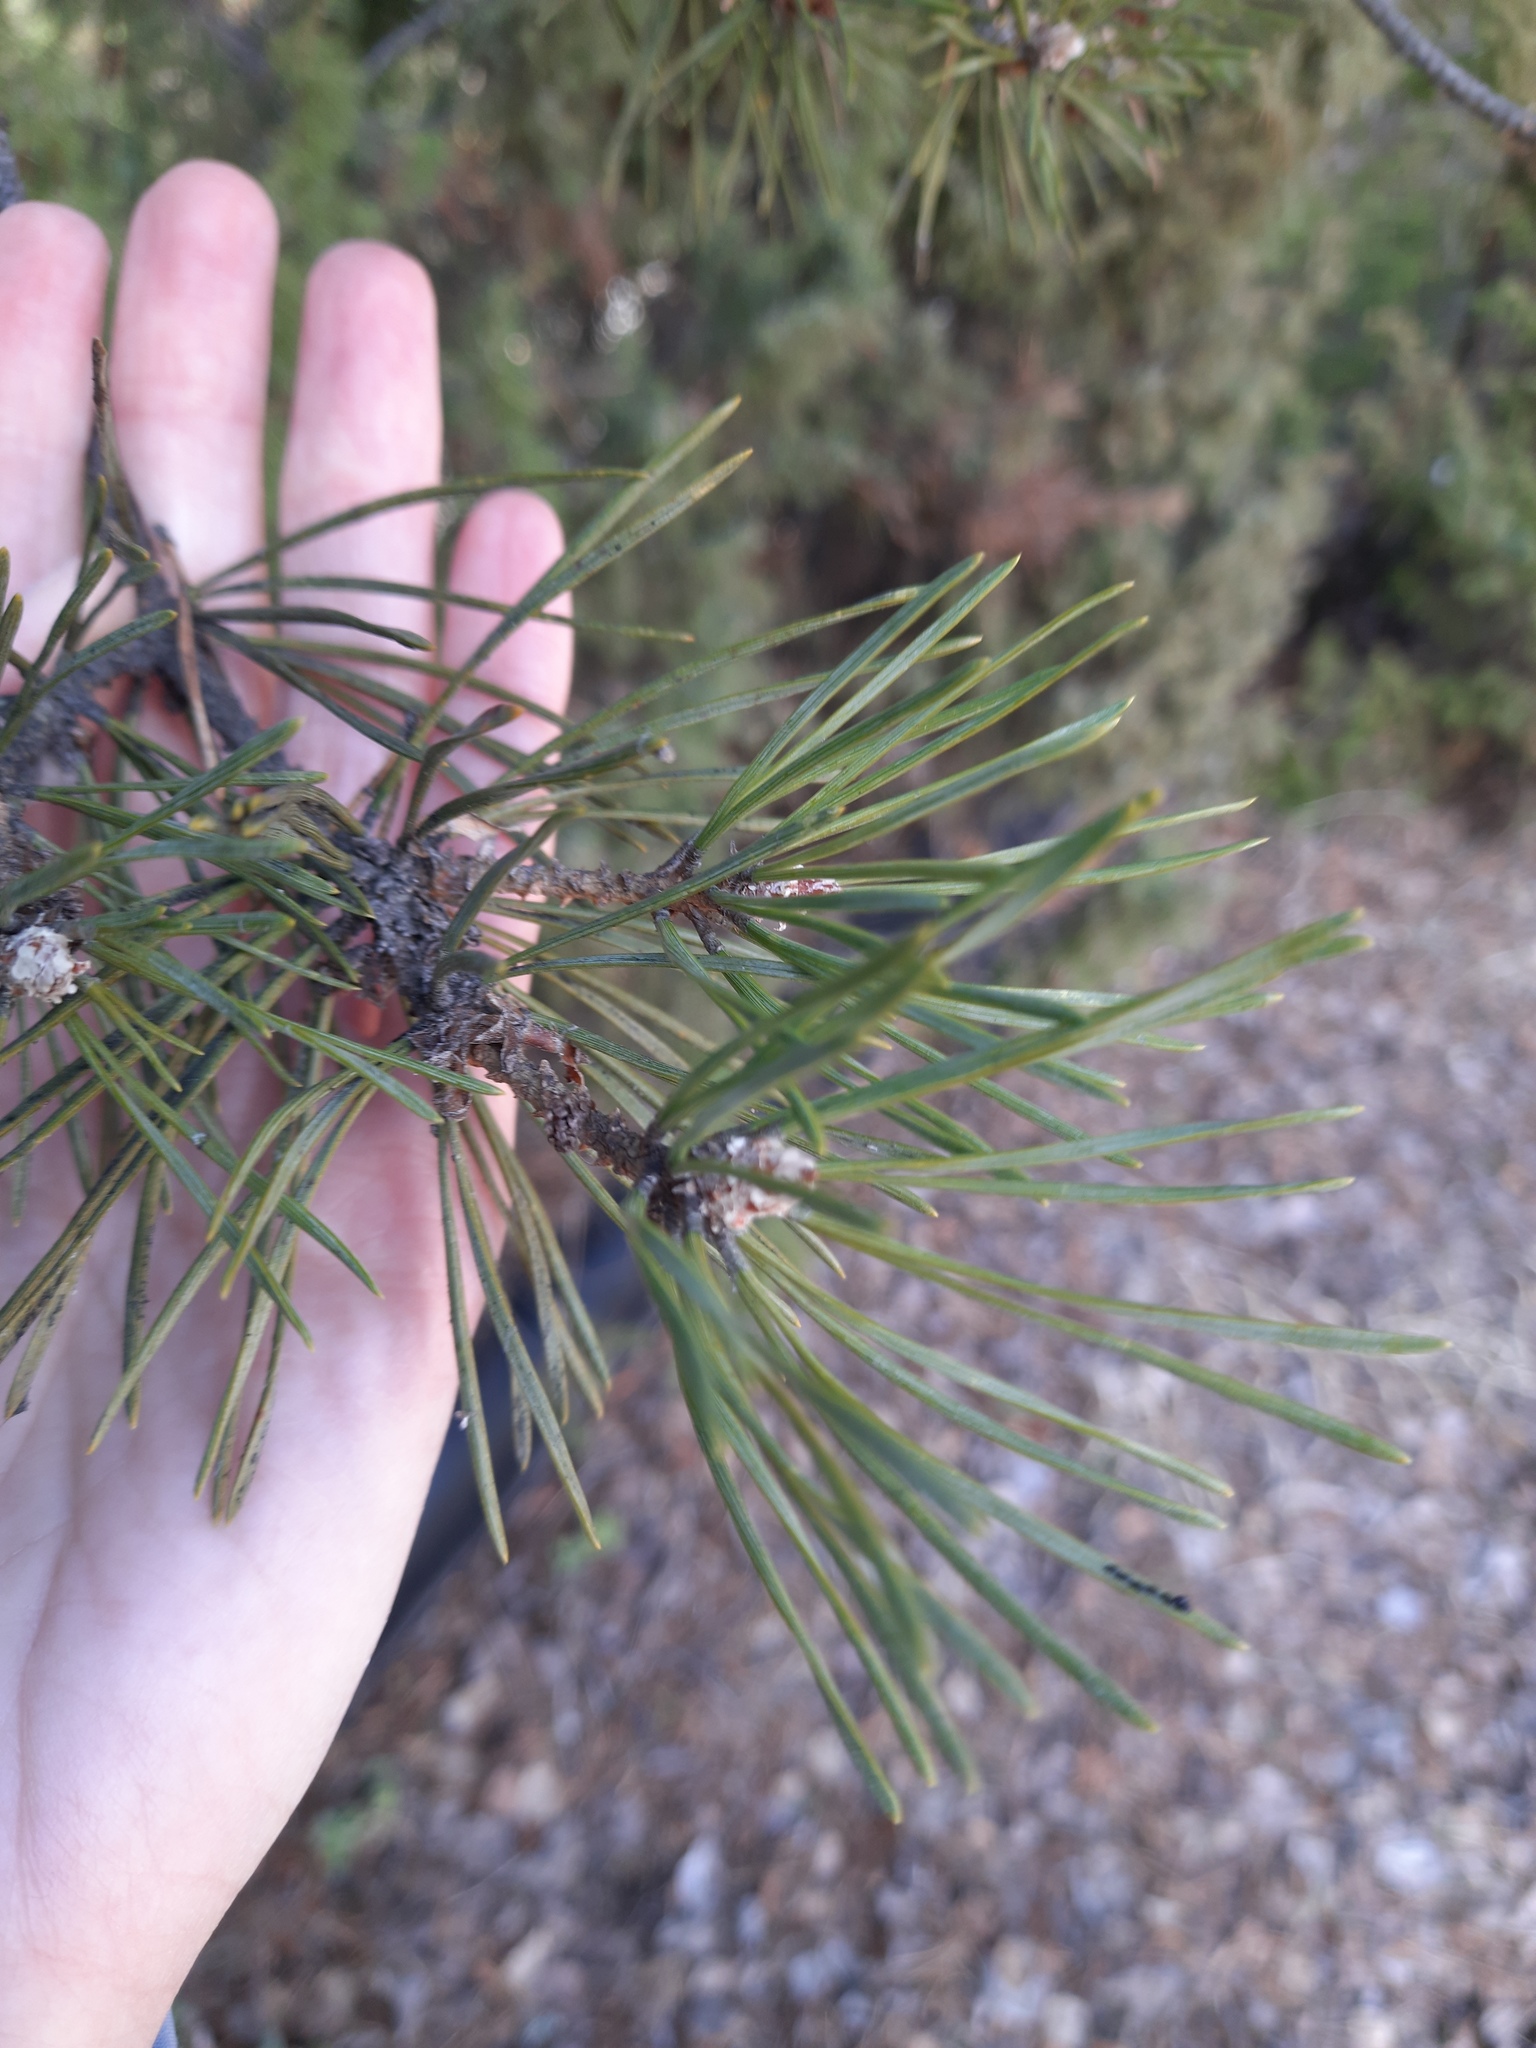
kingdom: Plantae
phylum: Tracheophyta
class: Pinopsida
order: Pinales
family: Pinaceae
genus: Pinus
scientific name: Pinus sylvestris
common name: Scots pine
